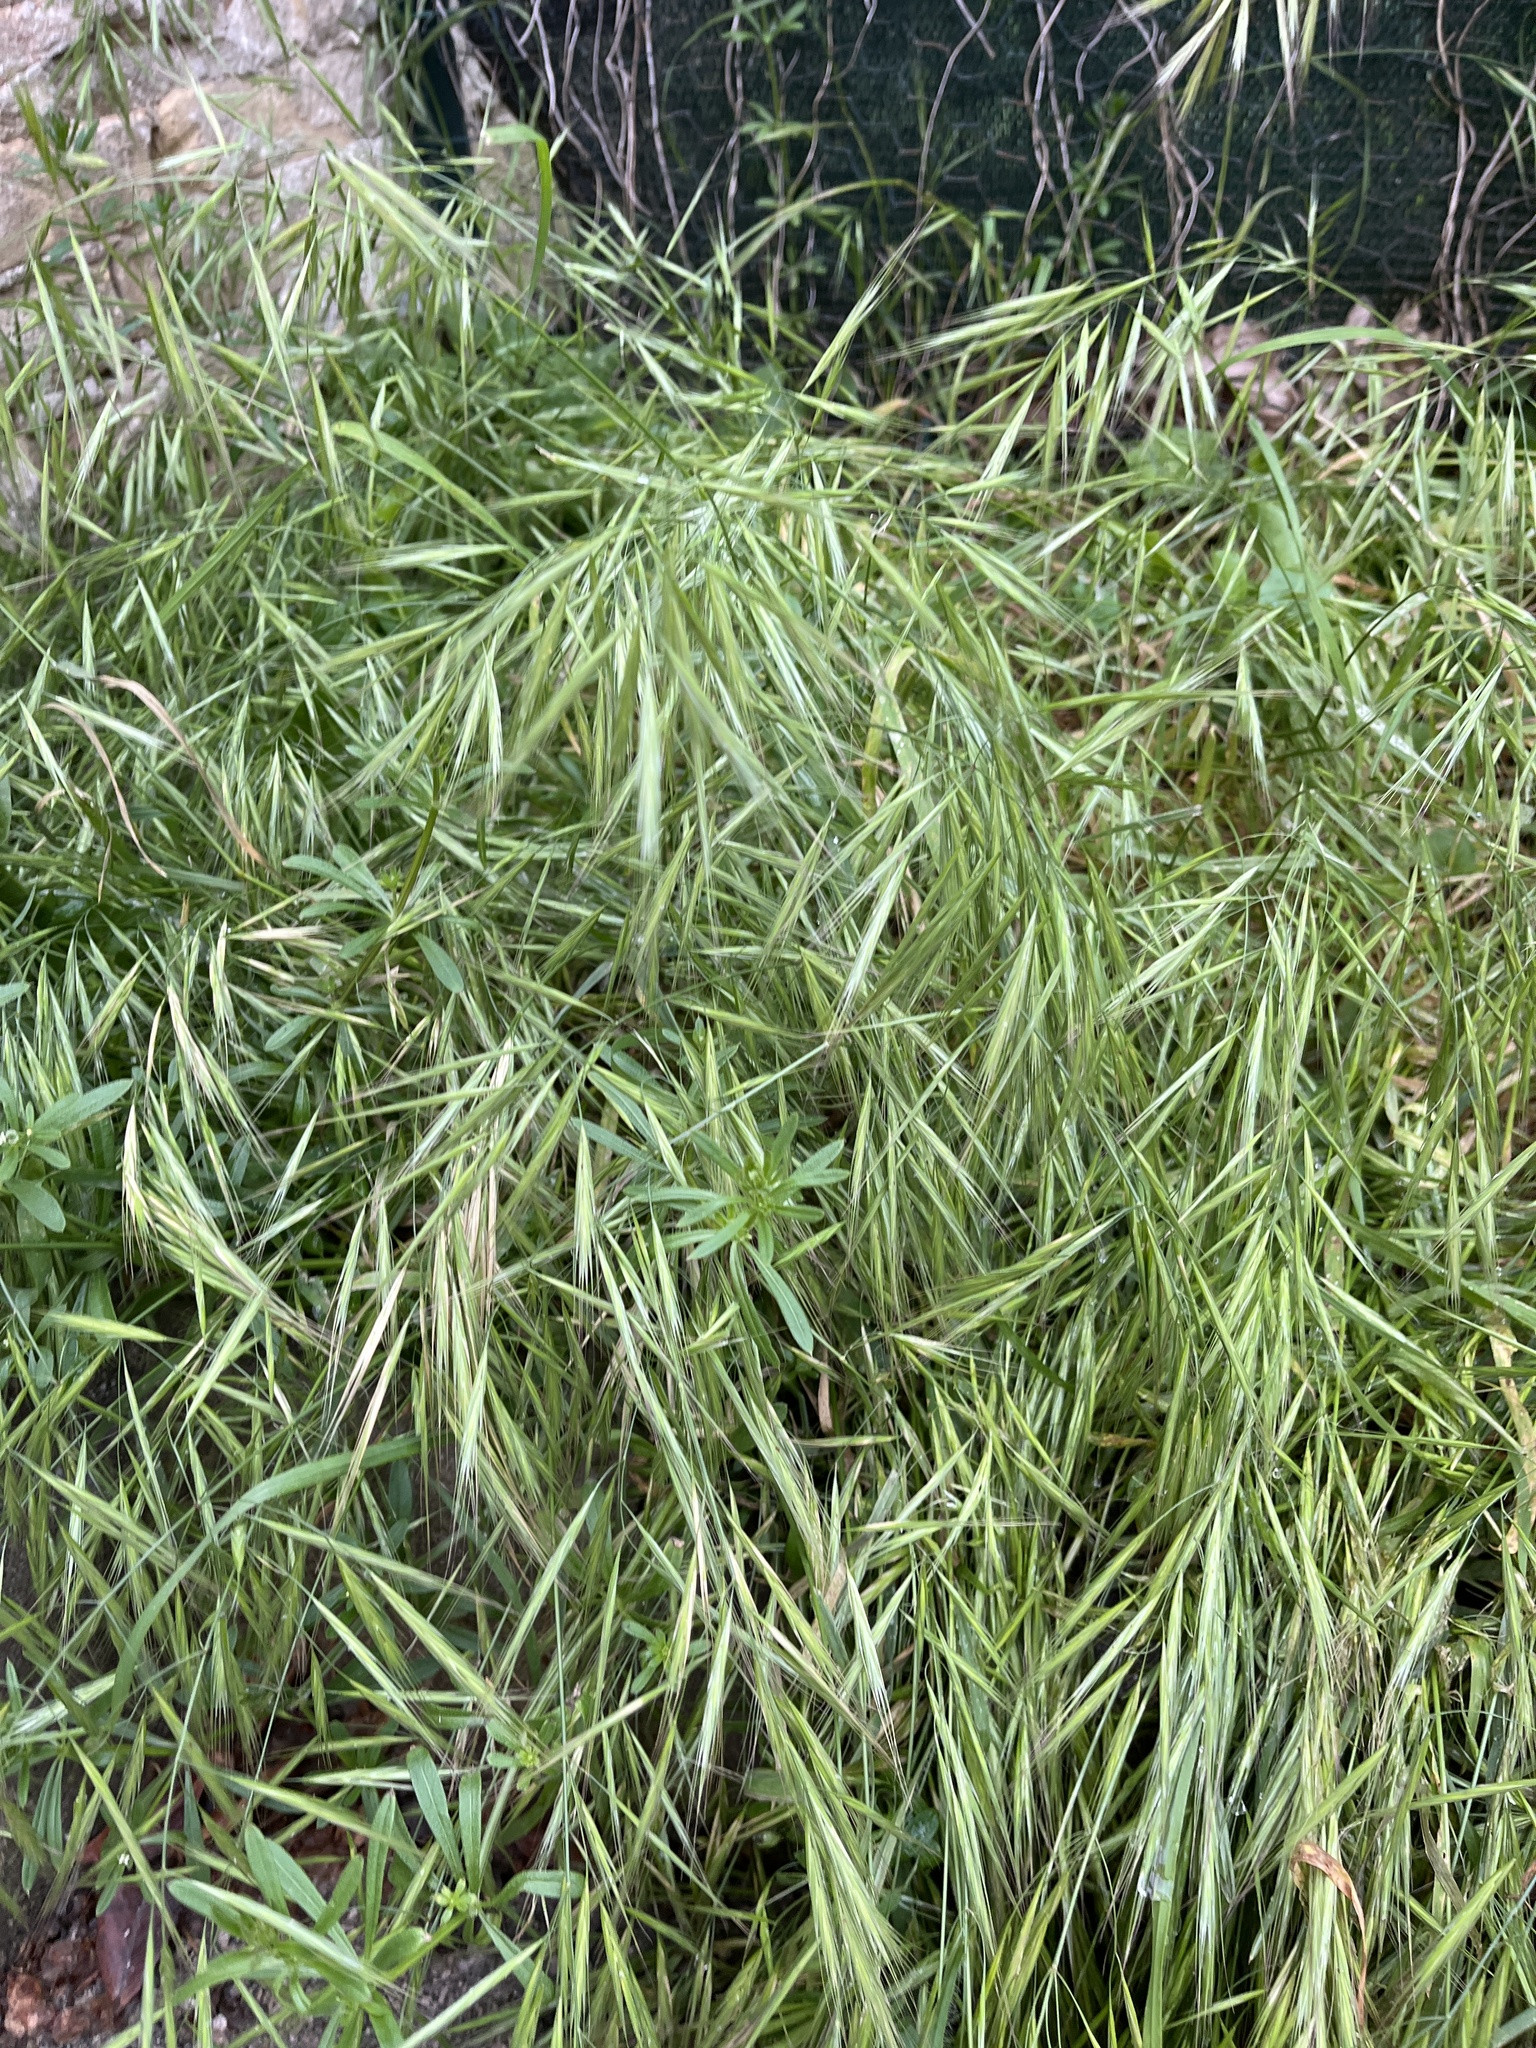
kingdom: Plantae
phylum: Tracheophyta
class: Liliopsida
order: Poales
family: Poaceae
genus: Bromus
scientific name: Bromus madritensis
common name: Compact brome
